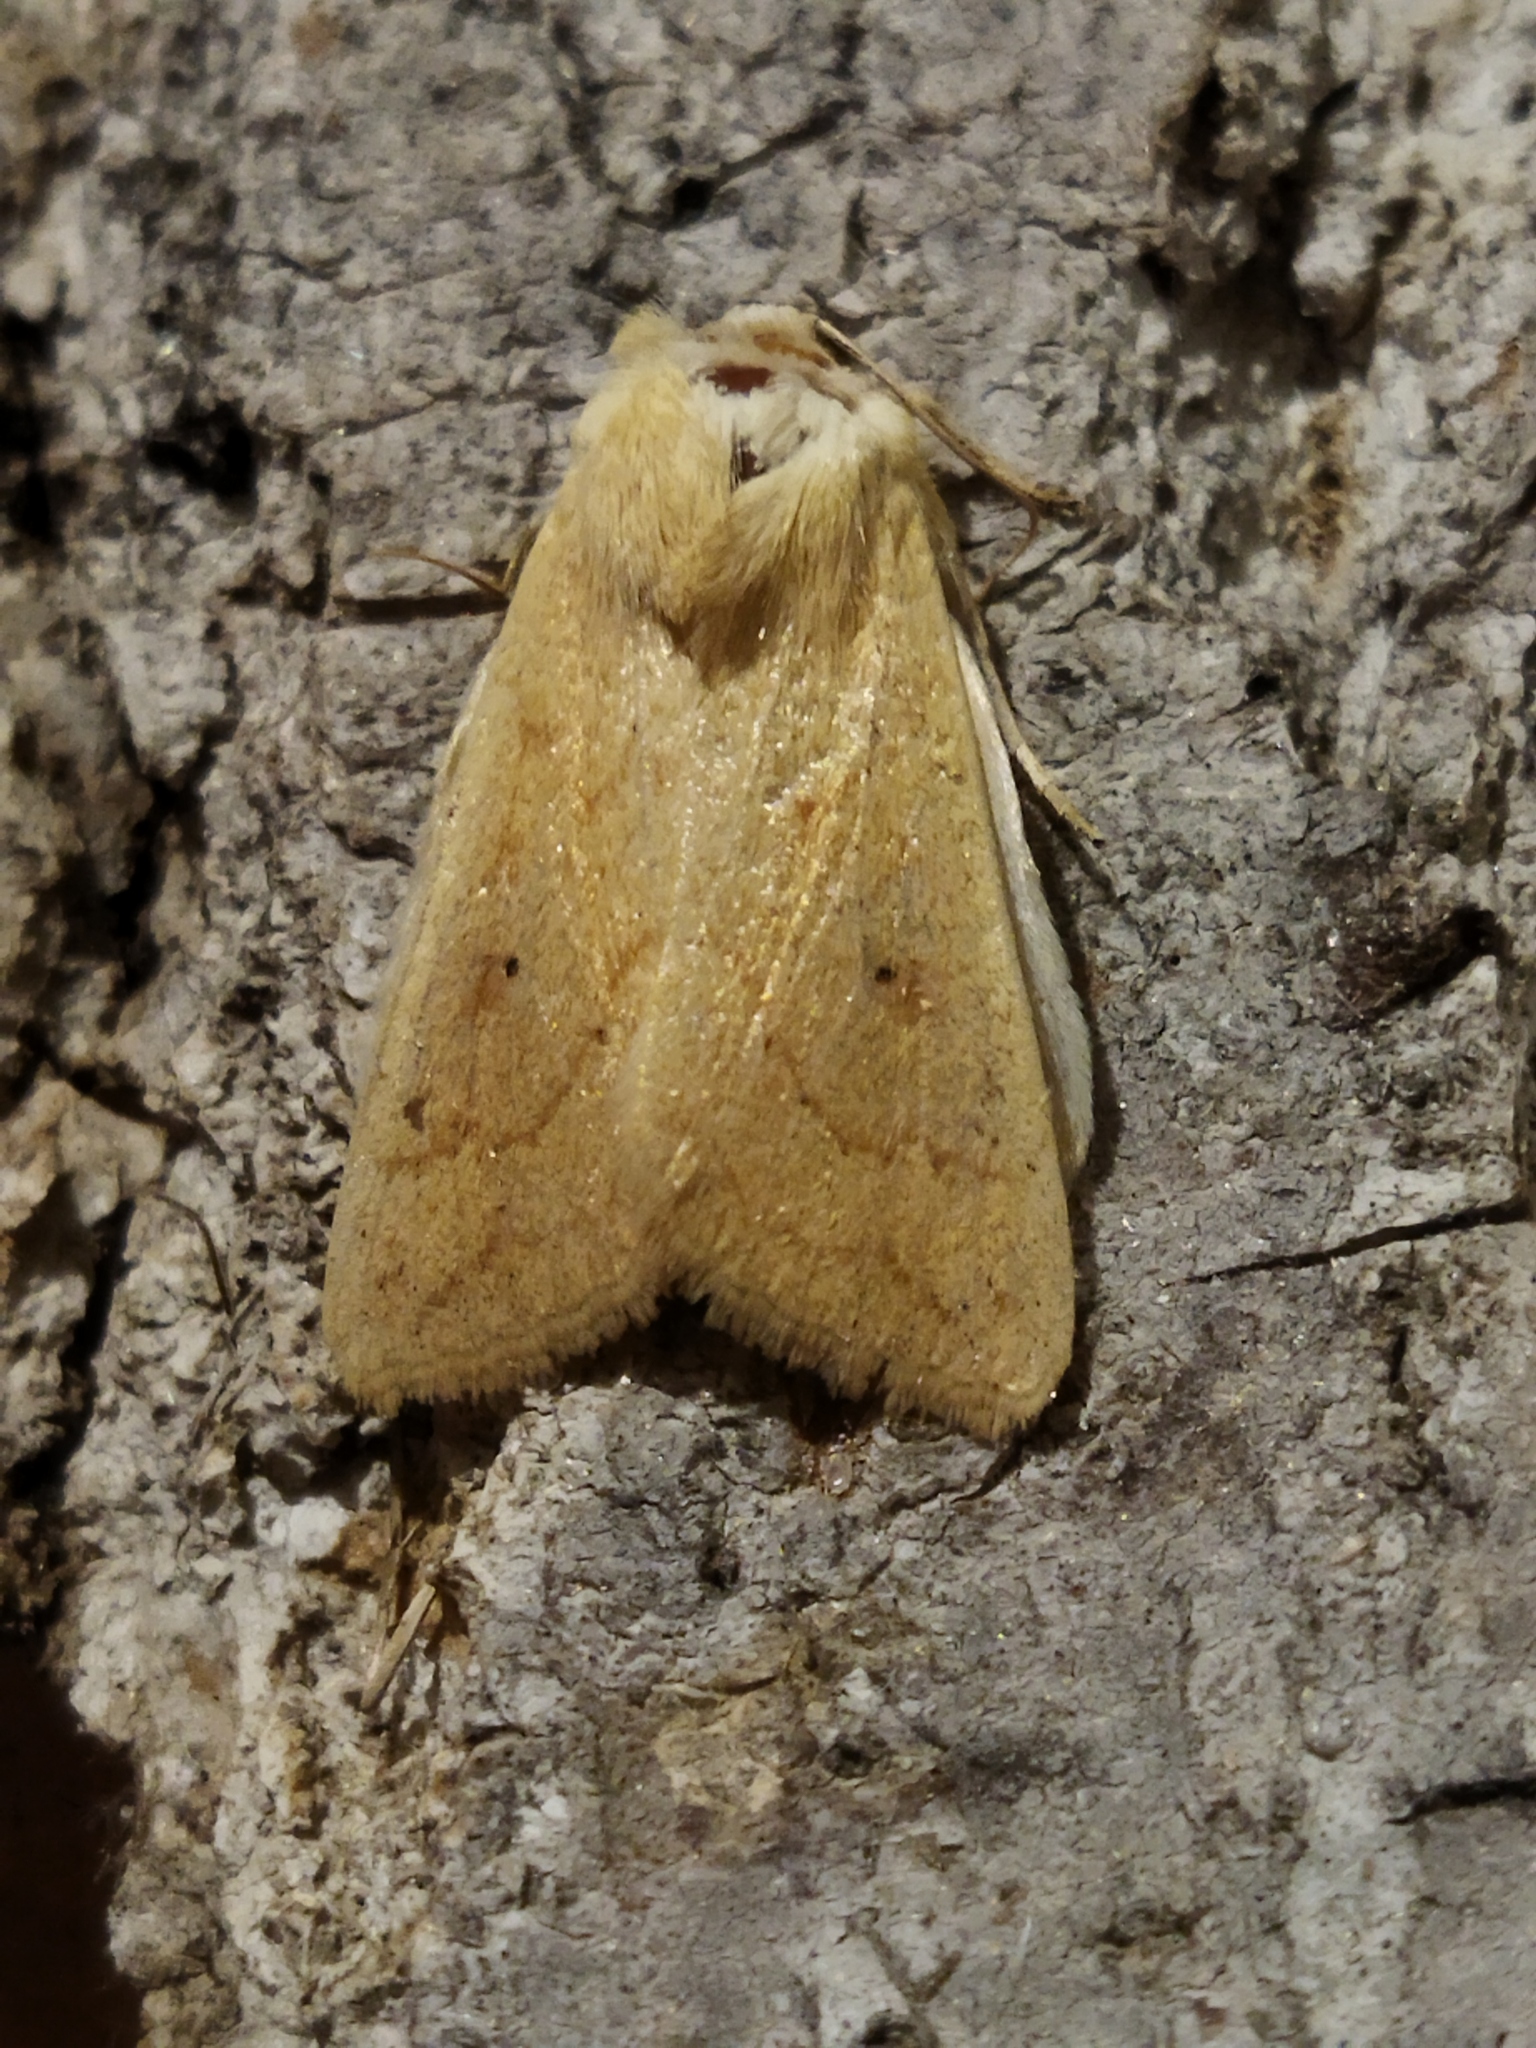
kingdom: Animalia
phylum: Arthropoda
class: Insecta
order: Lepidoptera
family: Noctuidae
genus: Mythimna
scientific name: Mythimna vitellina
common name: Delicate
